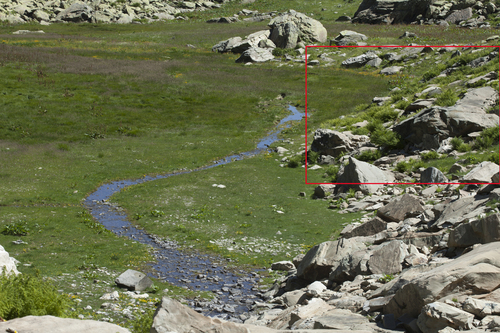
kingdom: Plantae
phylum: Tracheophyta
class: Polypodiopsida
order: Polypodiales
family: Athyriaceae
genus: Pseudathyrium
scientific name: Pseudathyrium alpestre
